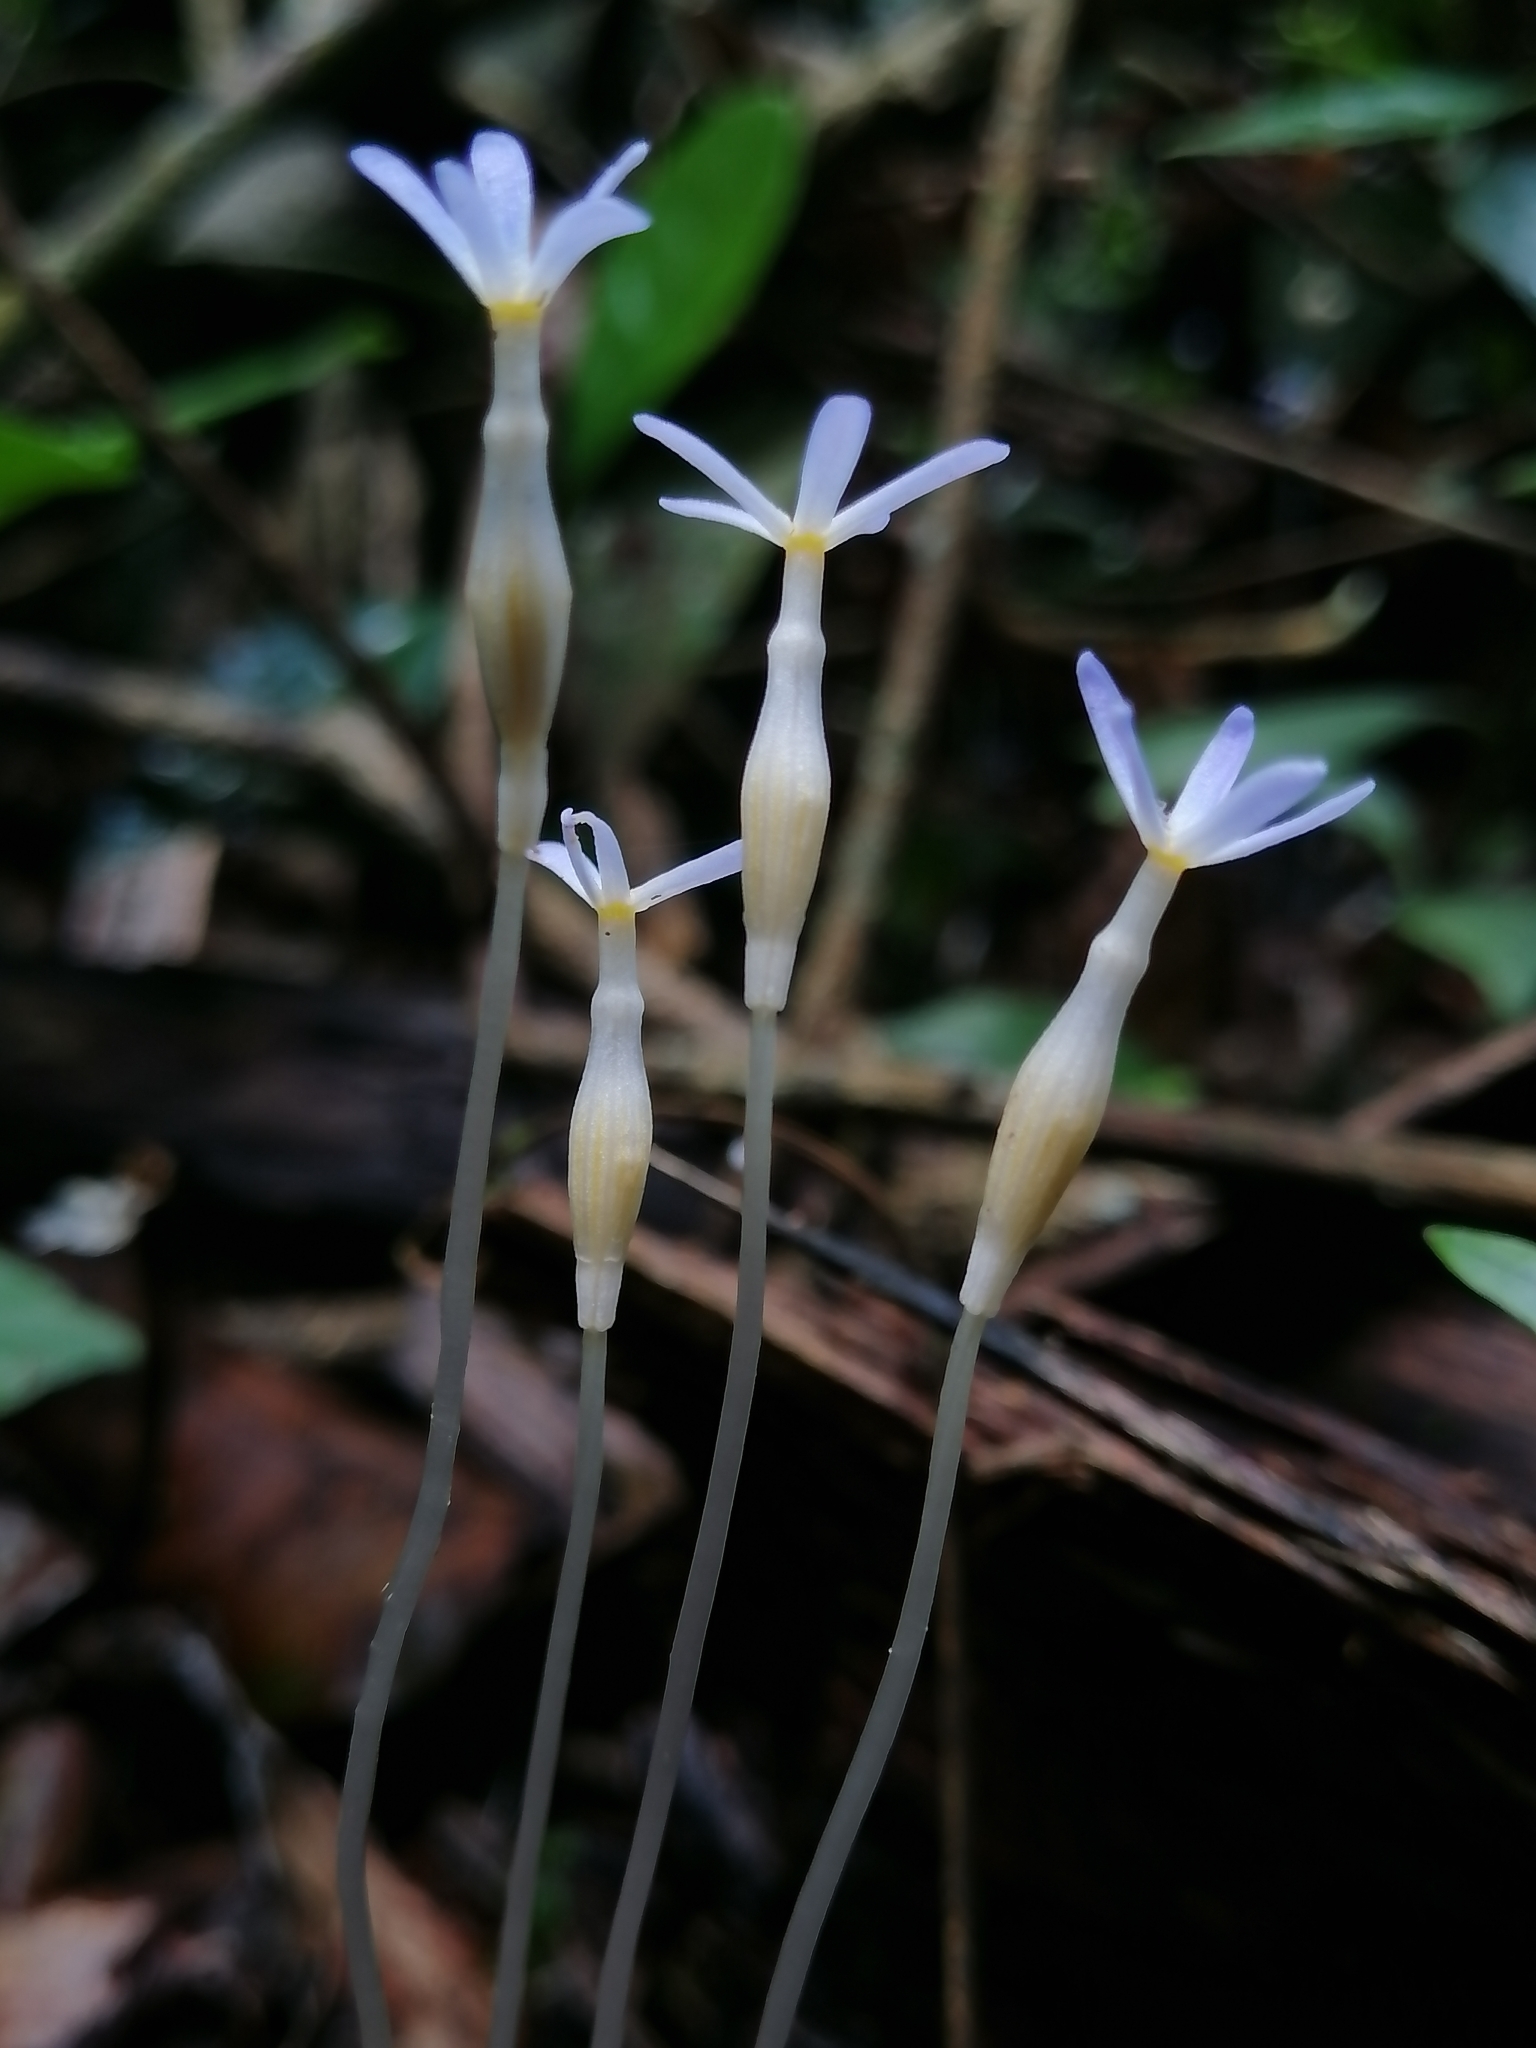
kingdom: Plantae
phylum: Tracheophyta
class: Magnoliopsida
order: Gentianales
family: Gentianaceae
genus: Voyria
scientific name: Voyria tenella
